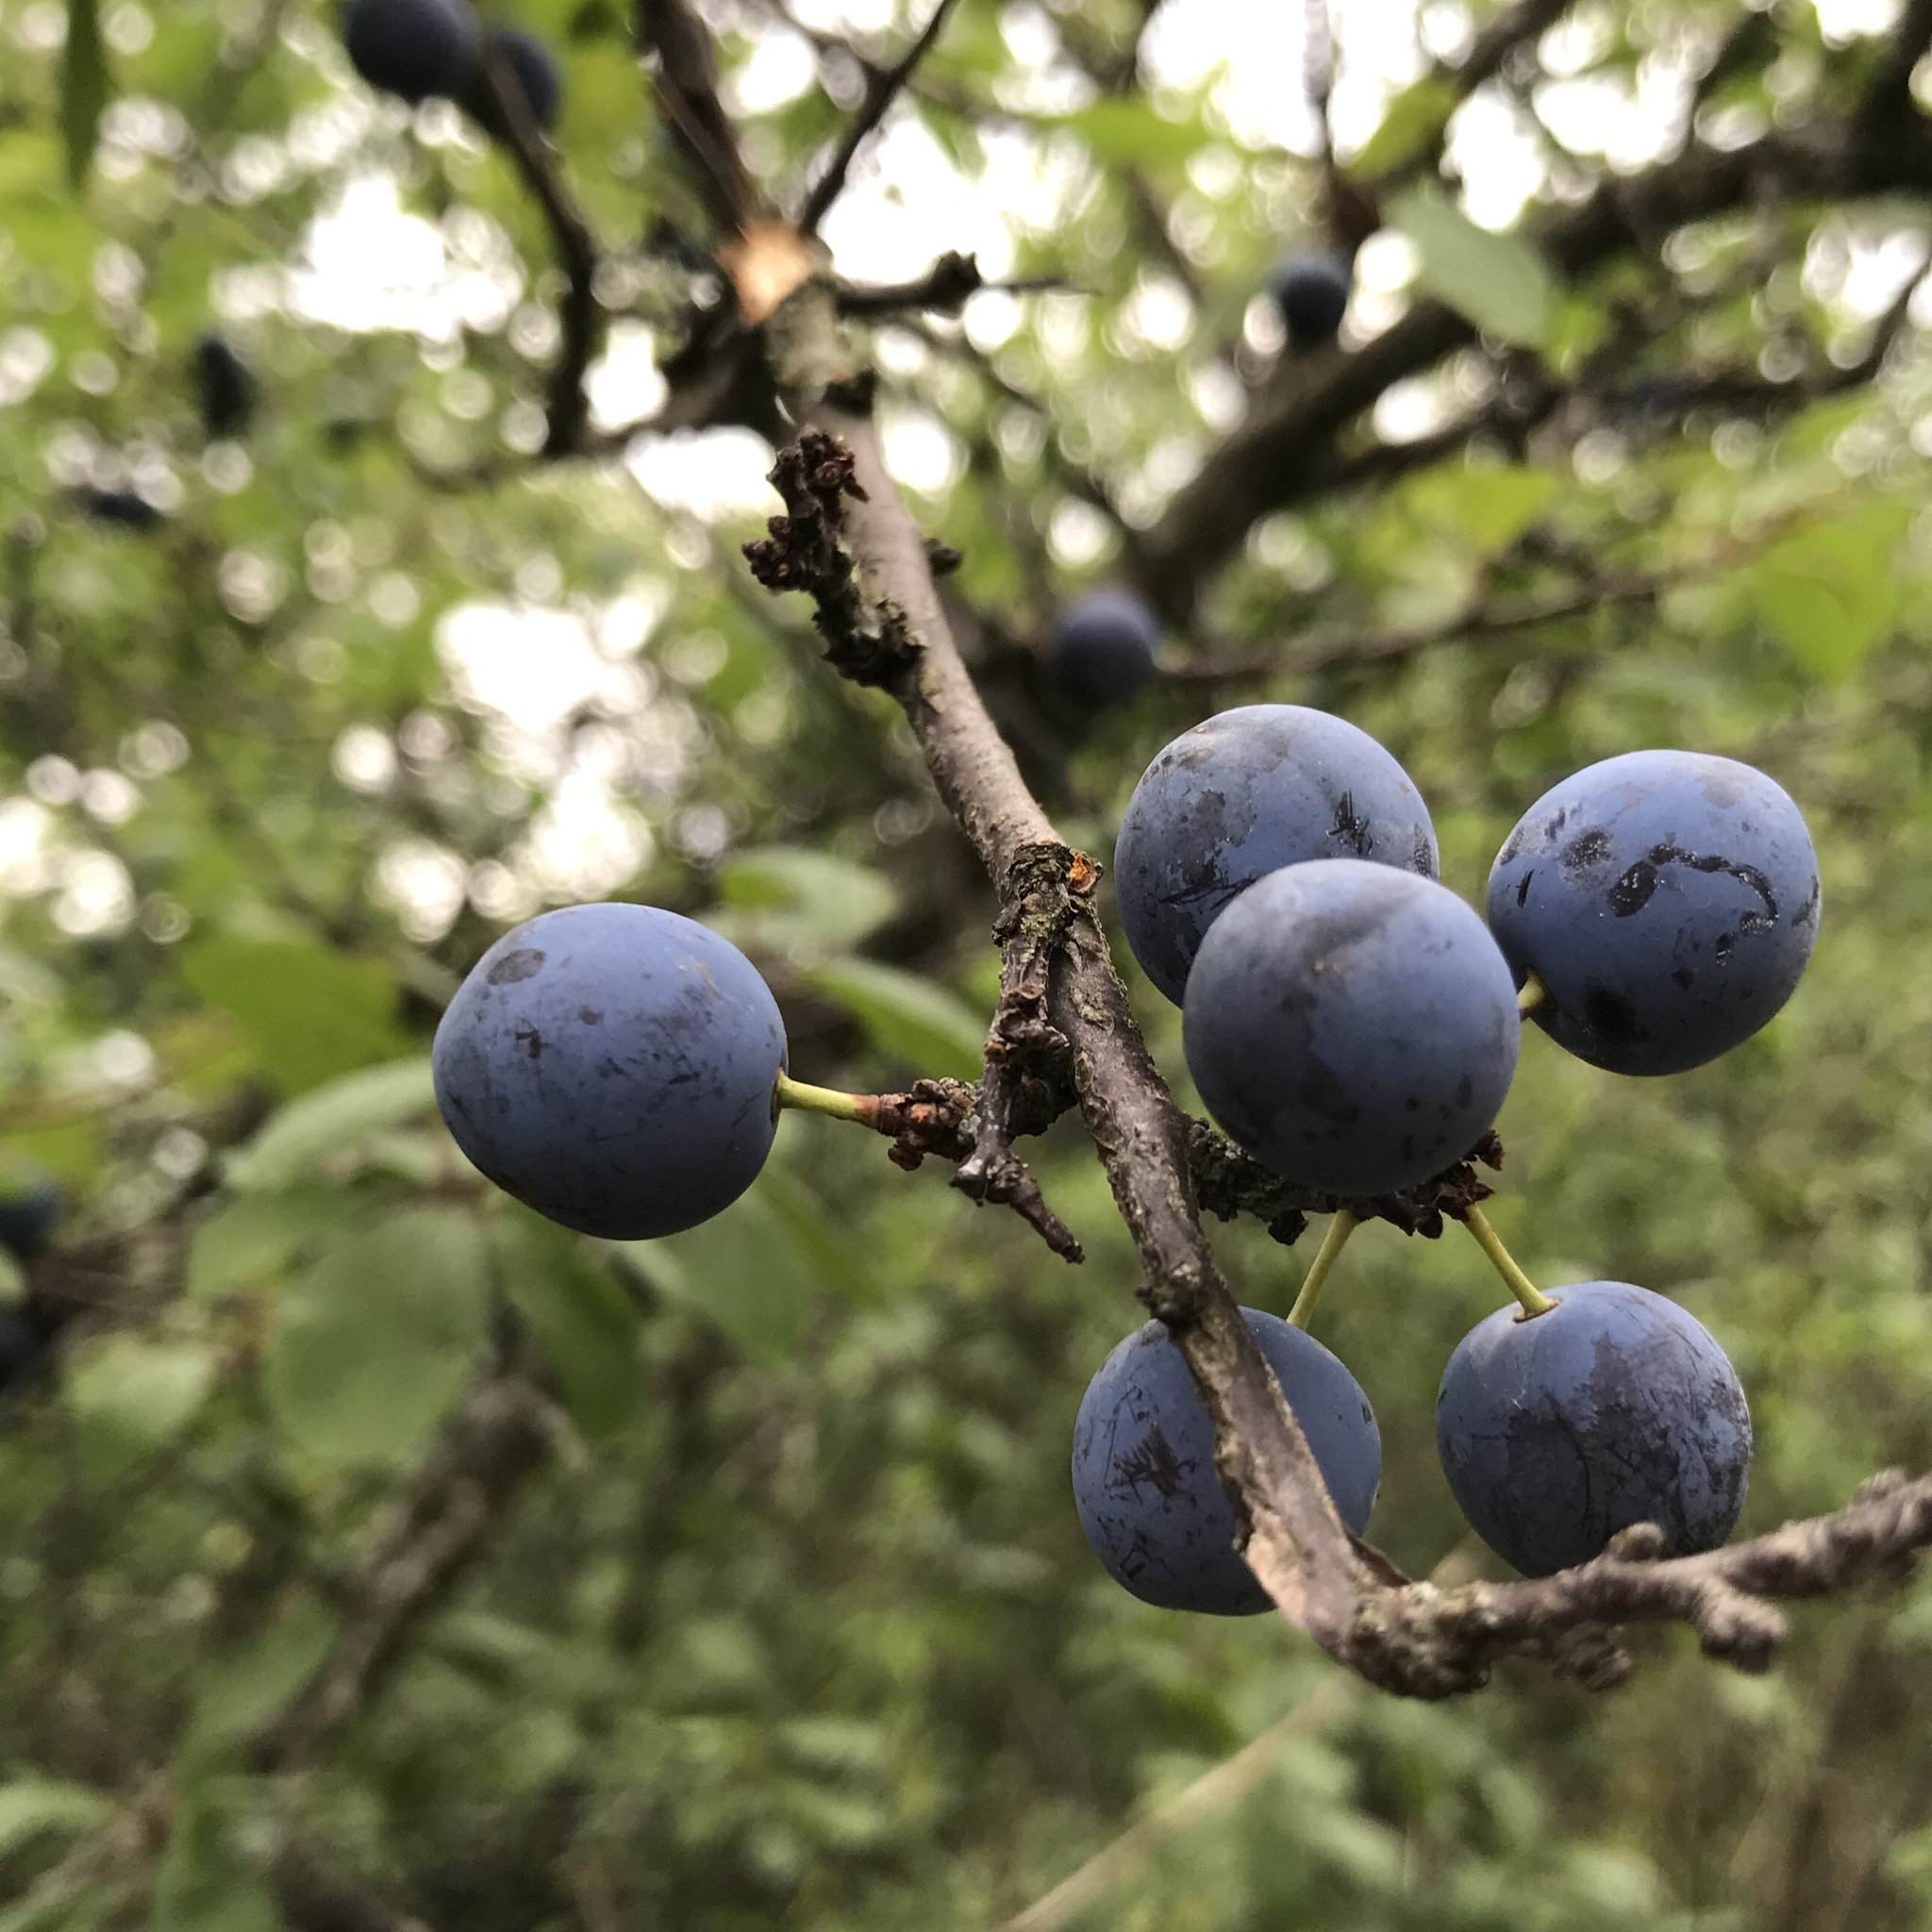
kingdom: Plantae
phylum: Tracheophyta
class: Magnoliopsida
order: Rosales
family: Rosaceae
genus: Prunus
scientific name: Prunus spinosa
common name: Blackthorn
